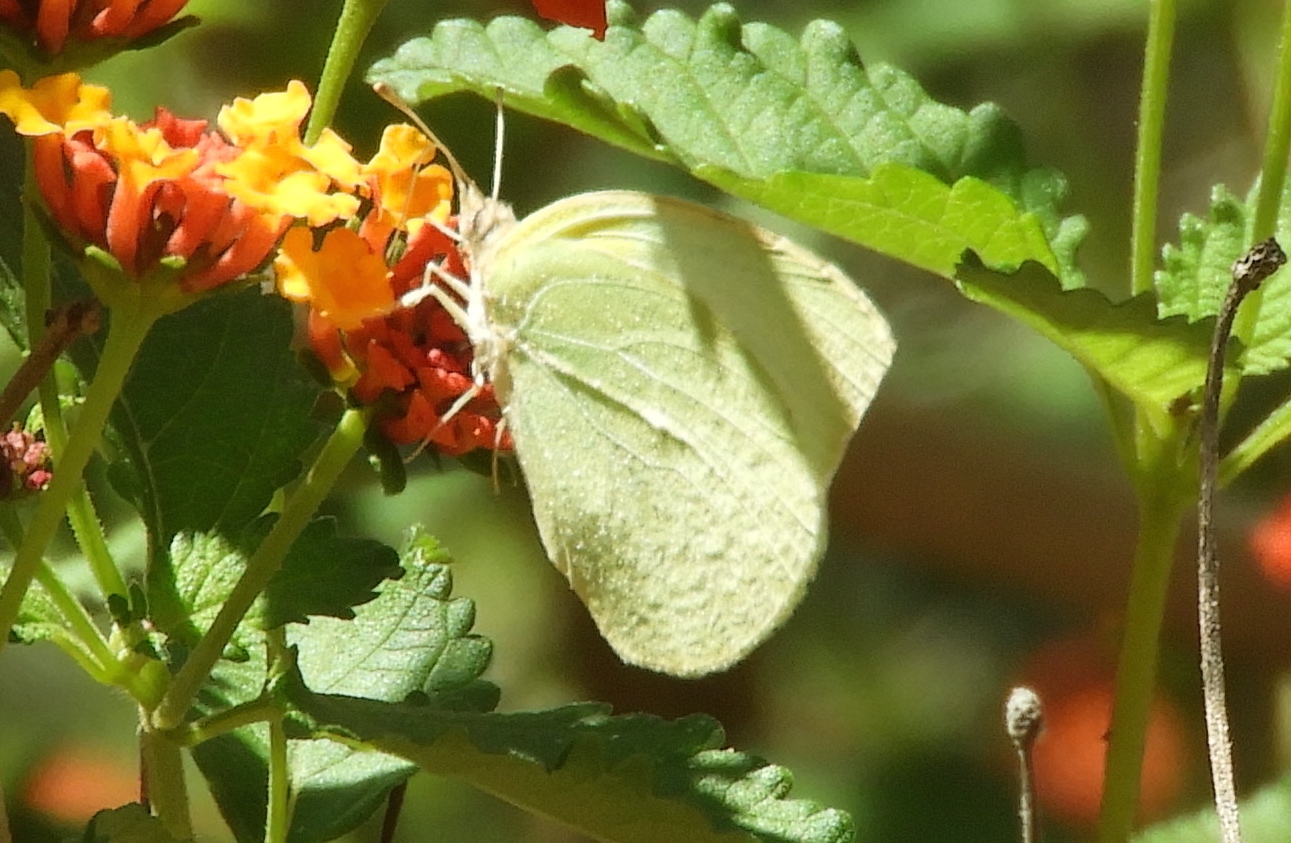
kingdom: Animalia
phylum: Arthropoda
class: Insecta
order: Lepidoptera
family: Pieridae
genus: Kricogonia
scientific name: Kricogonia lyside
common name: Guayacan sulphur,
